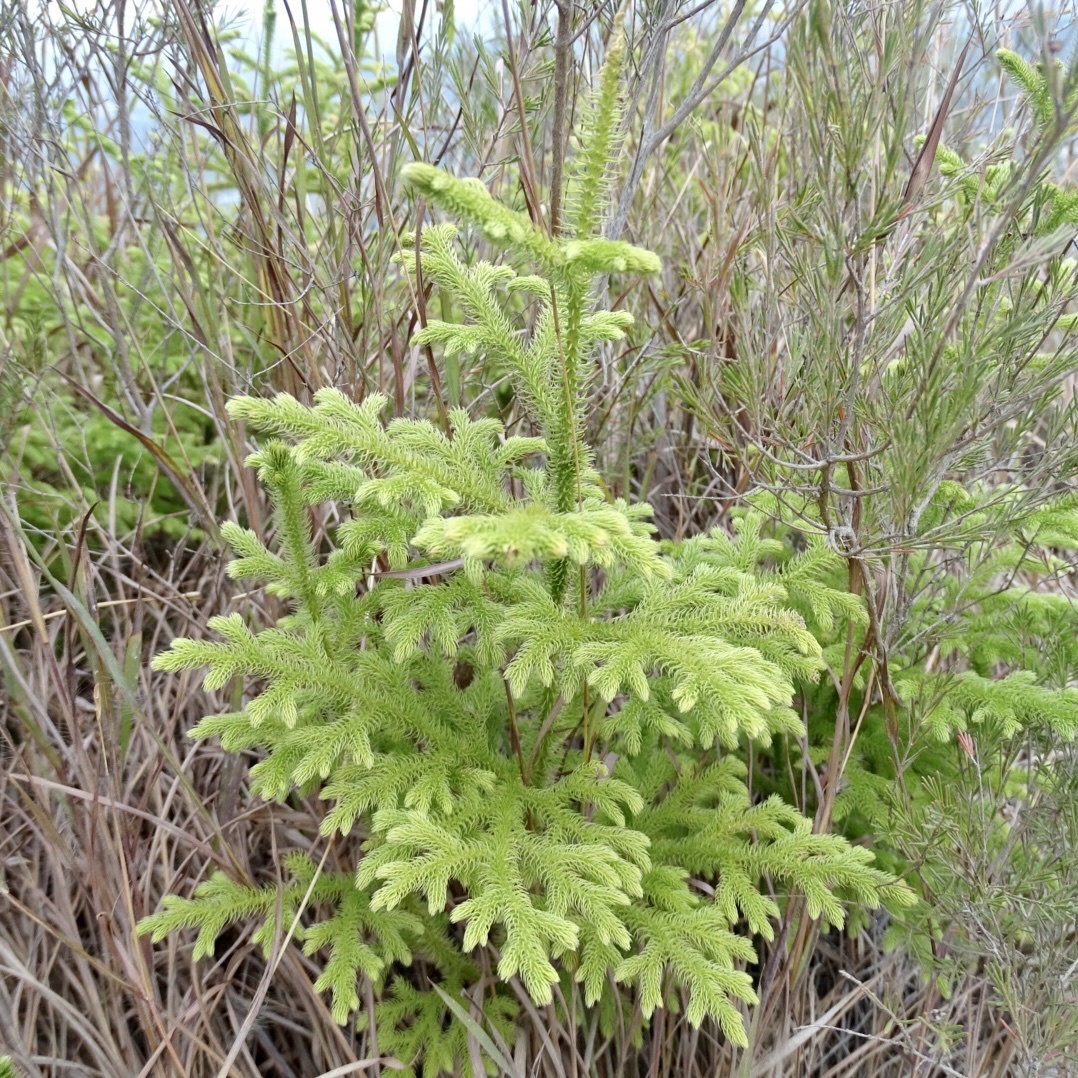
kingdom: Plantae
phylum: Tracheophyta
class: Lycopodiopsida
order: Lycopodiales
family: Lycopodiaceae
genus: Palhinhaea
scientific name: Palhinhaea cernua
